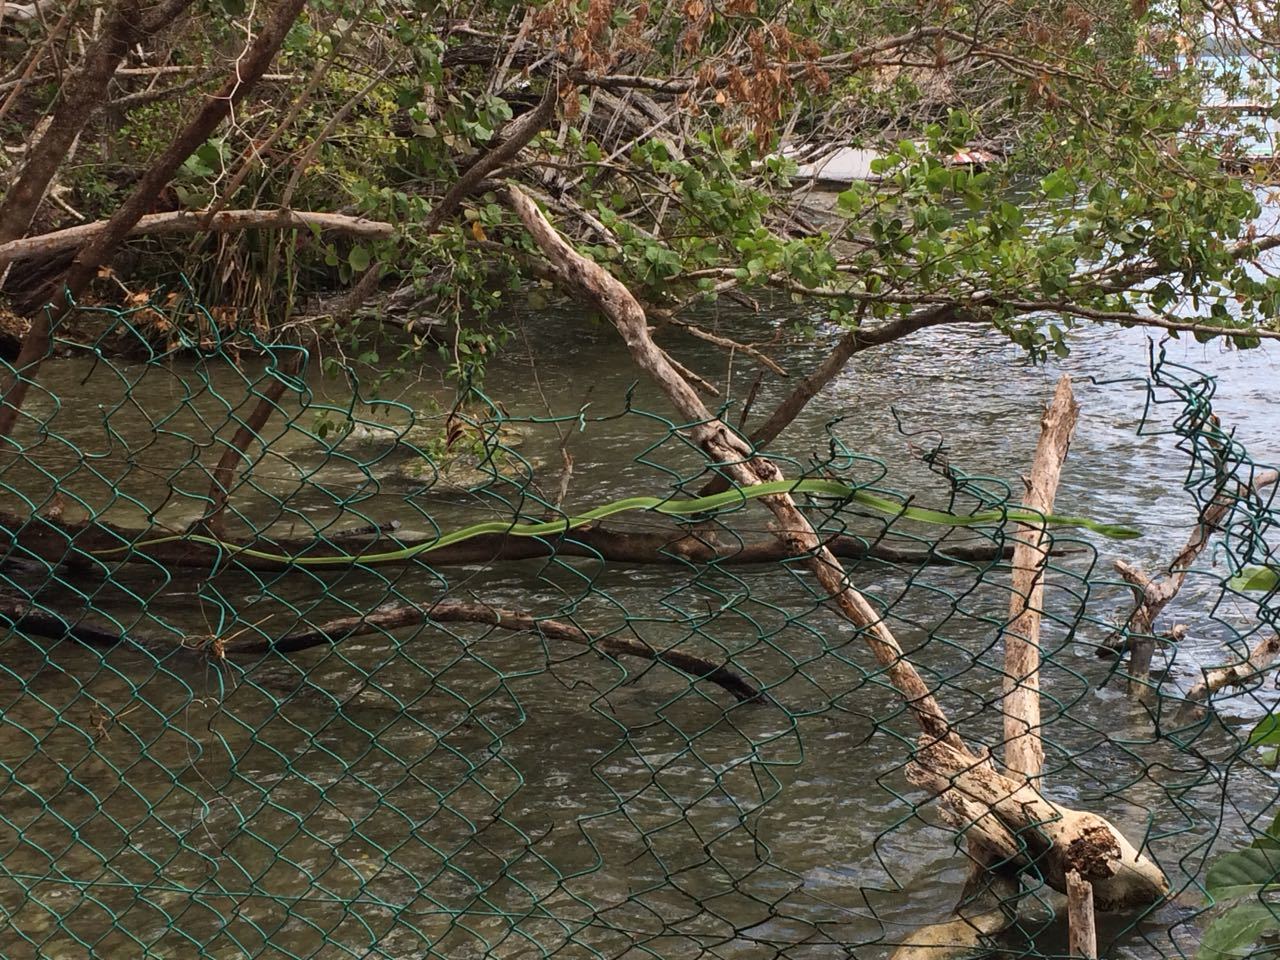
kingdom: Animalia
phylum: Chordata
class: Squamata
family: Colubridae
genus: Oxybelis
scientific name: Oxybelis fulgidus
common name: Green vine snake
